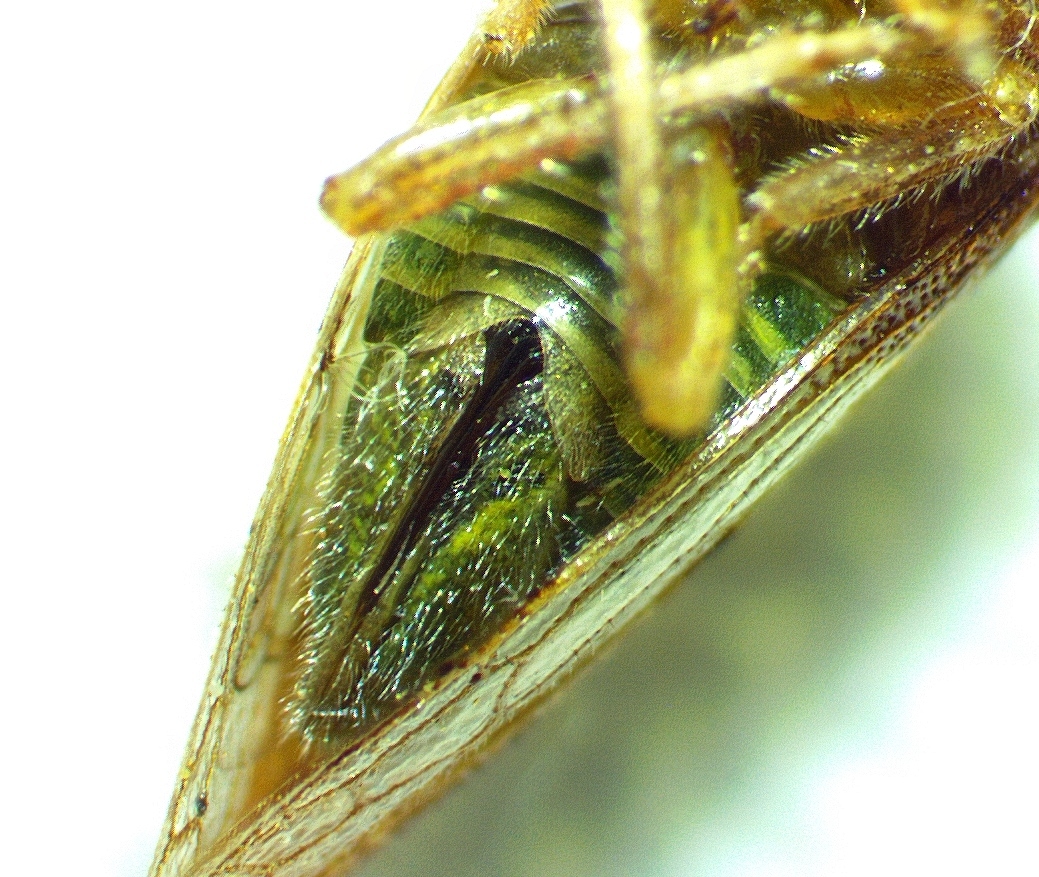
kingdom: Animalia
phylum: Arthropoda
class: Insecta
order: Hemiptera
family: Membracidae
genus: Cyrtolobus
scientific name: Cyrtolobus vau
